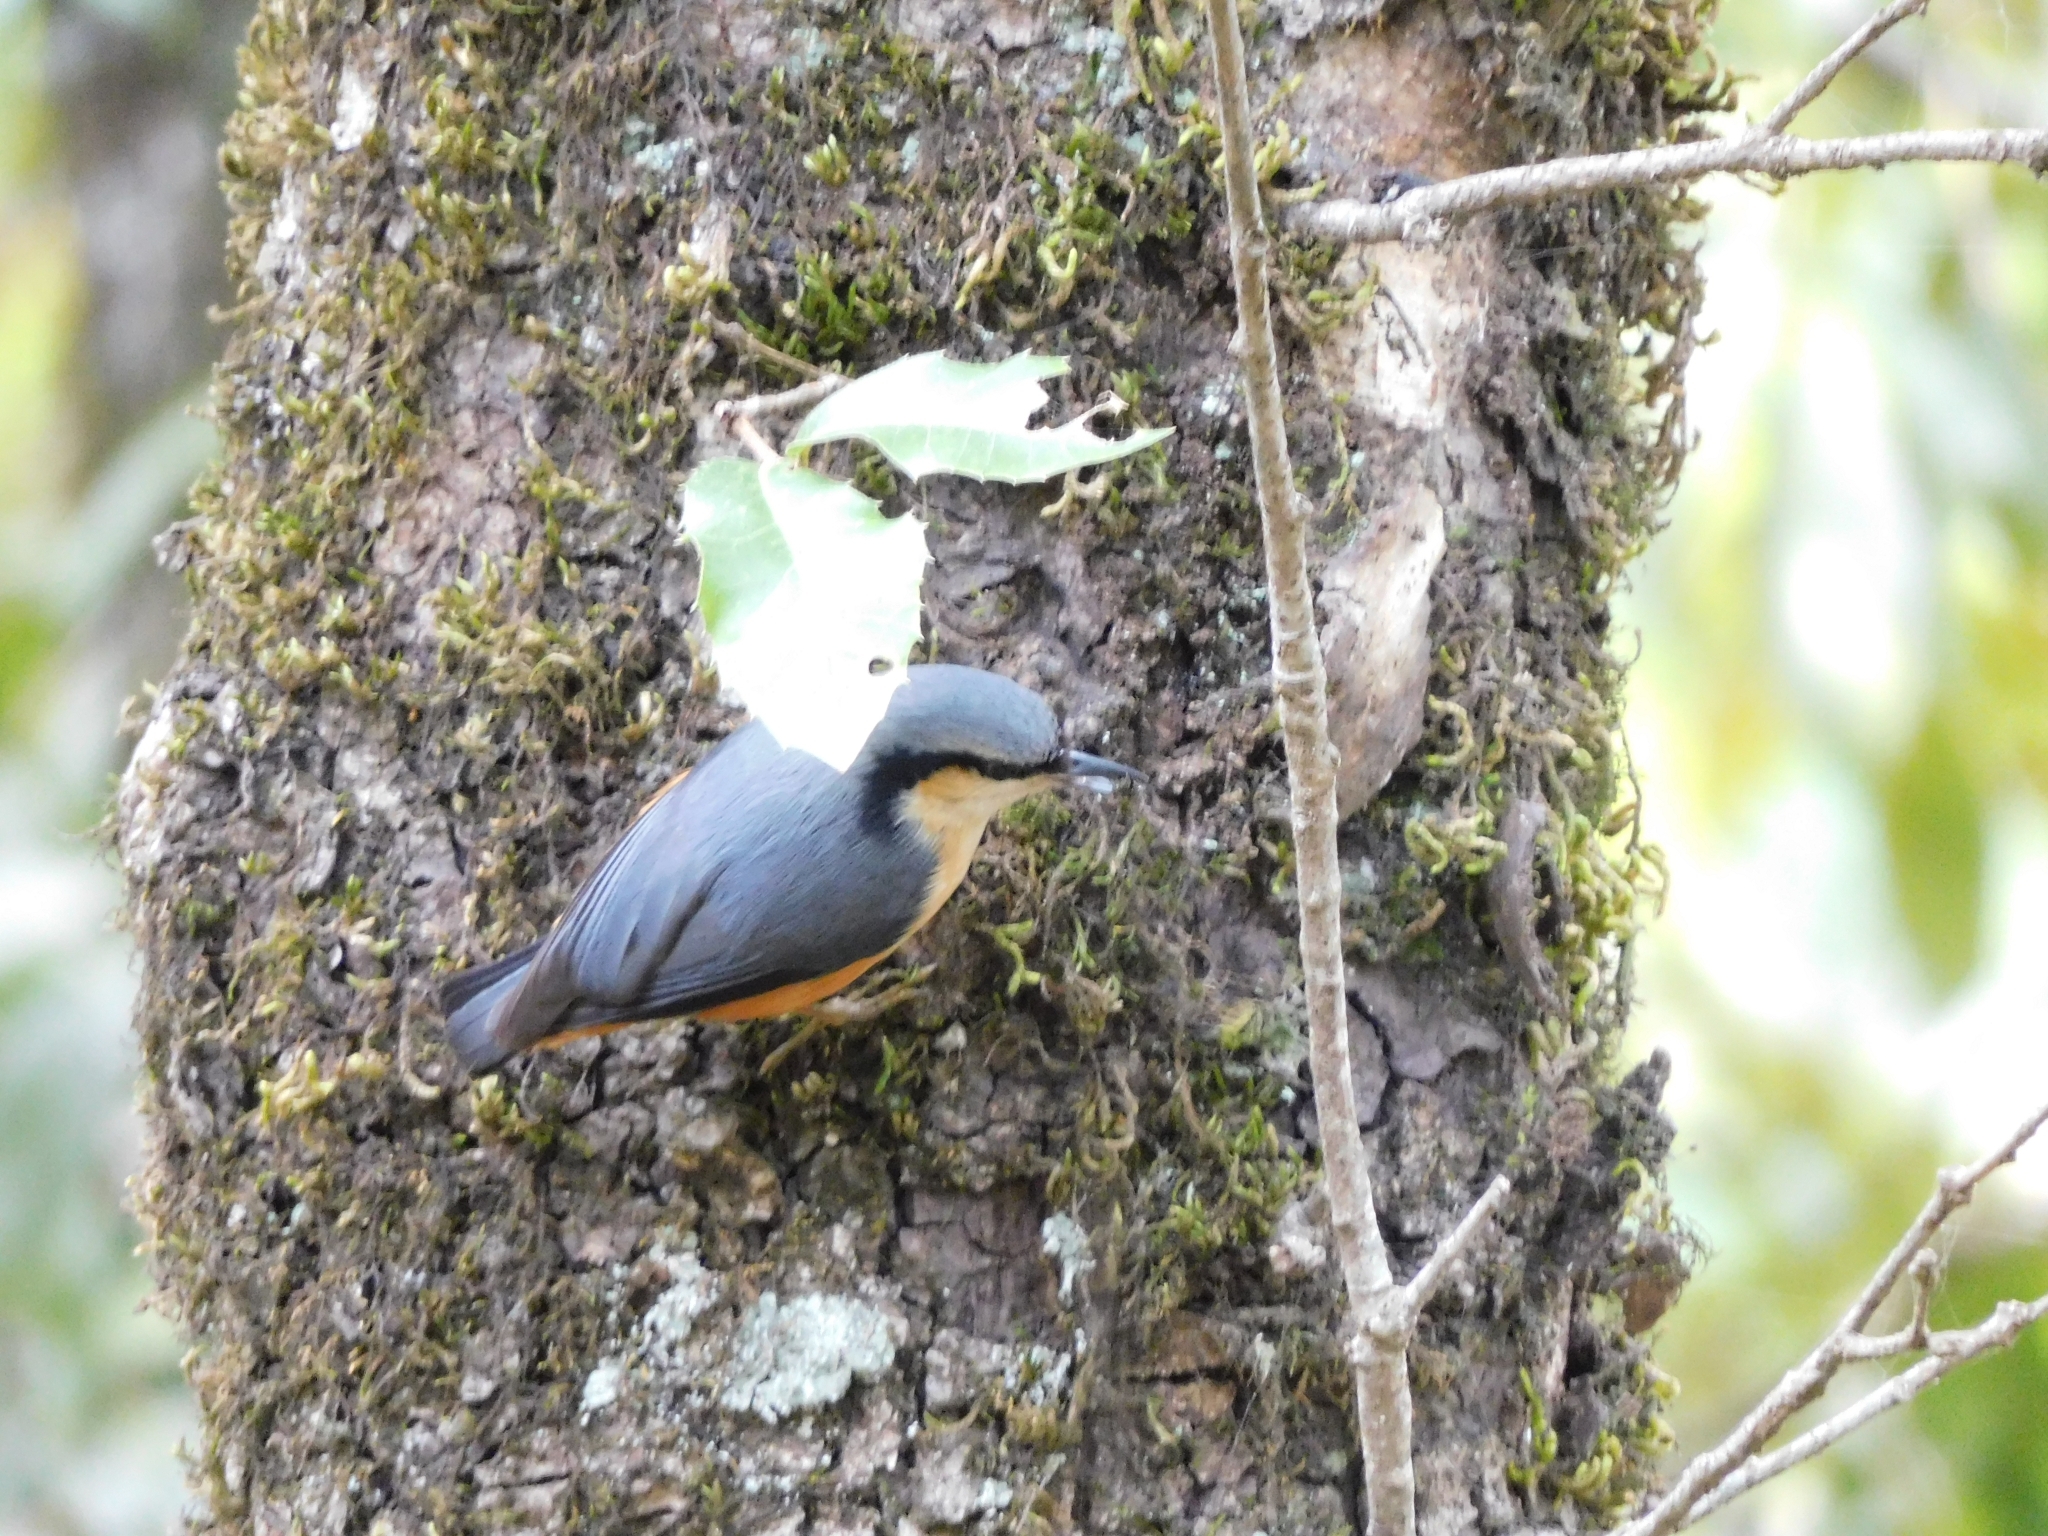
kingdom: Animalia
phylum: Chordata
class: Aves
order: Passeriformes
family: Sittidae
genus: Sitta
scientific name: Sitta himalayensis
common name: White-tailed nuthatch
